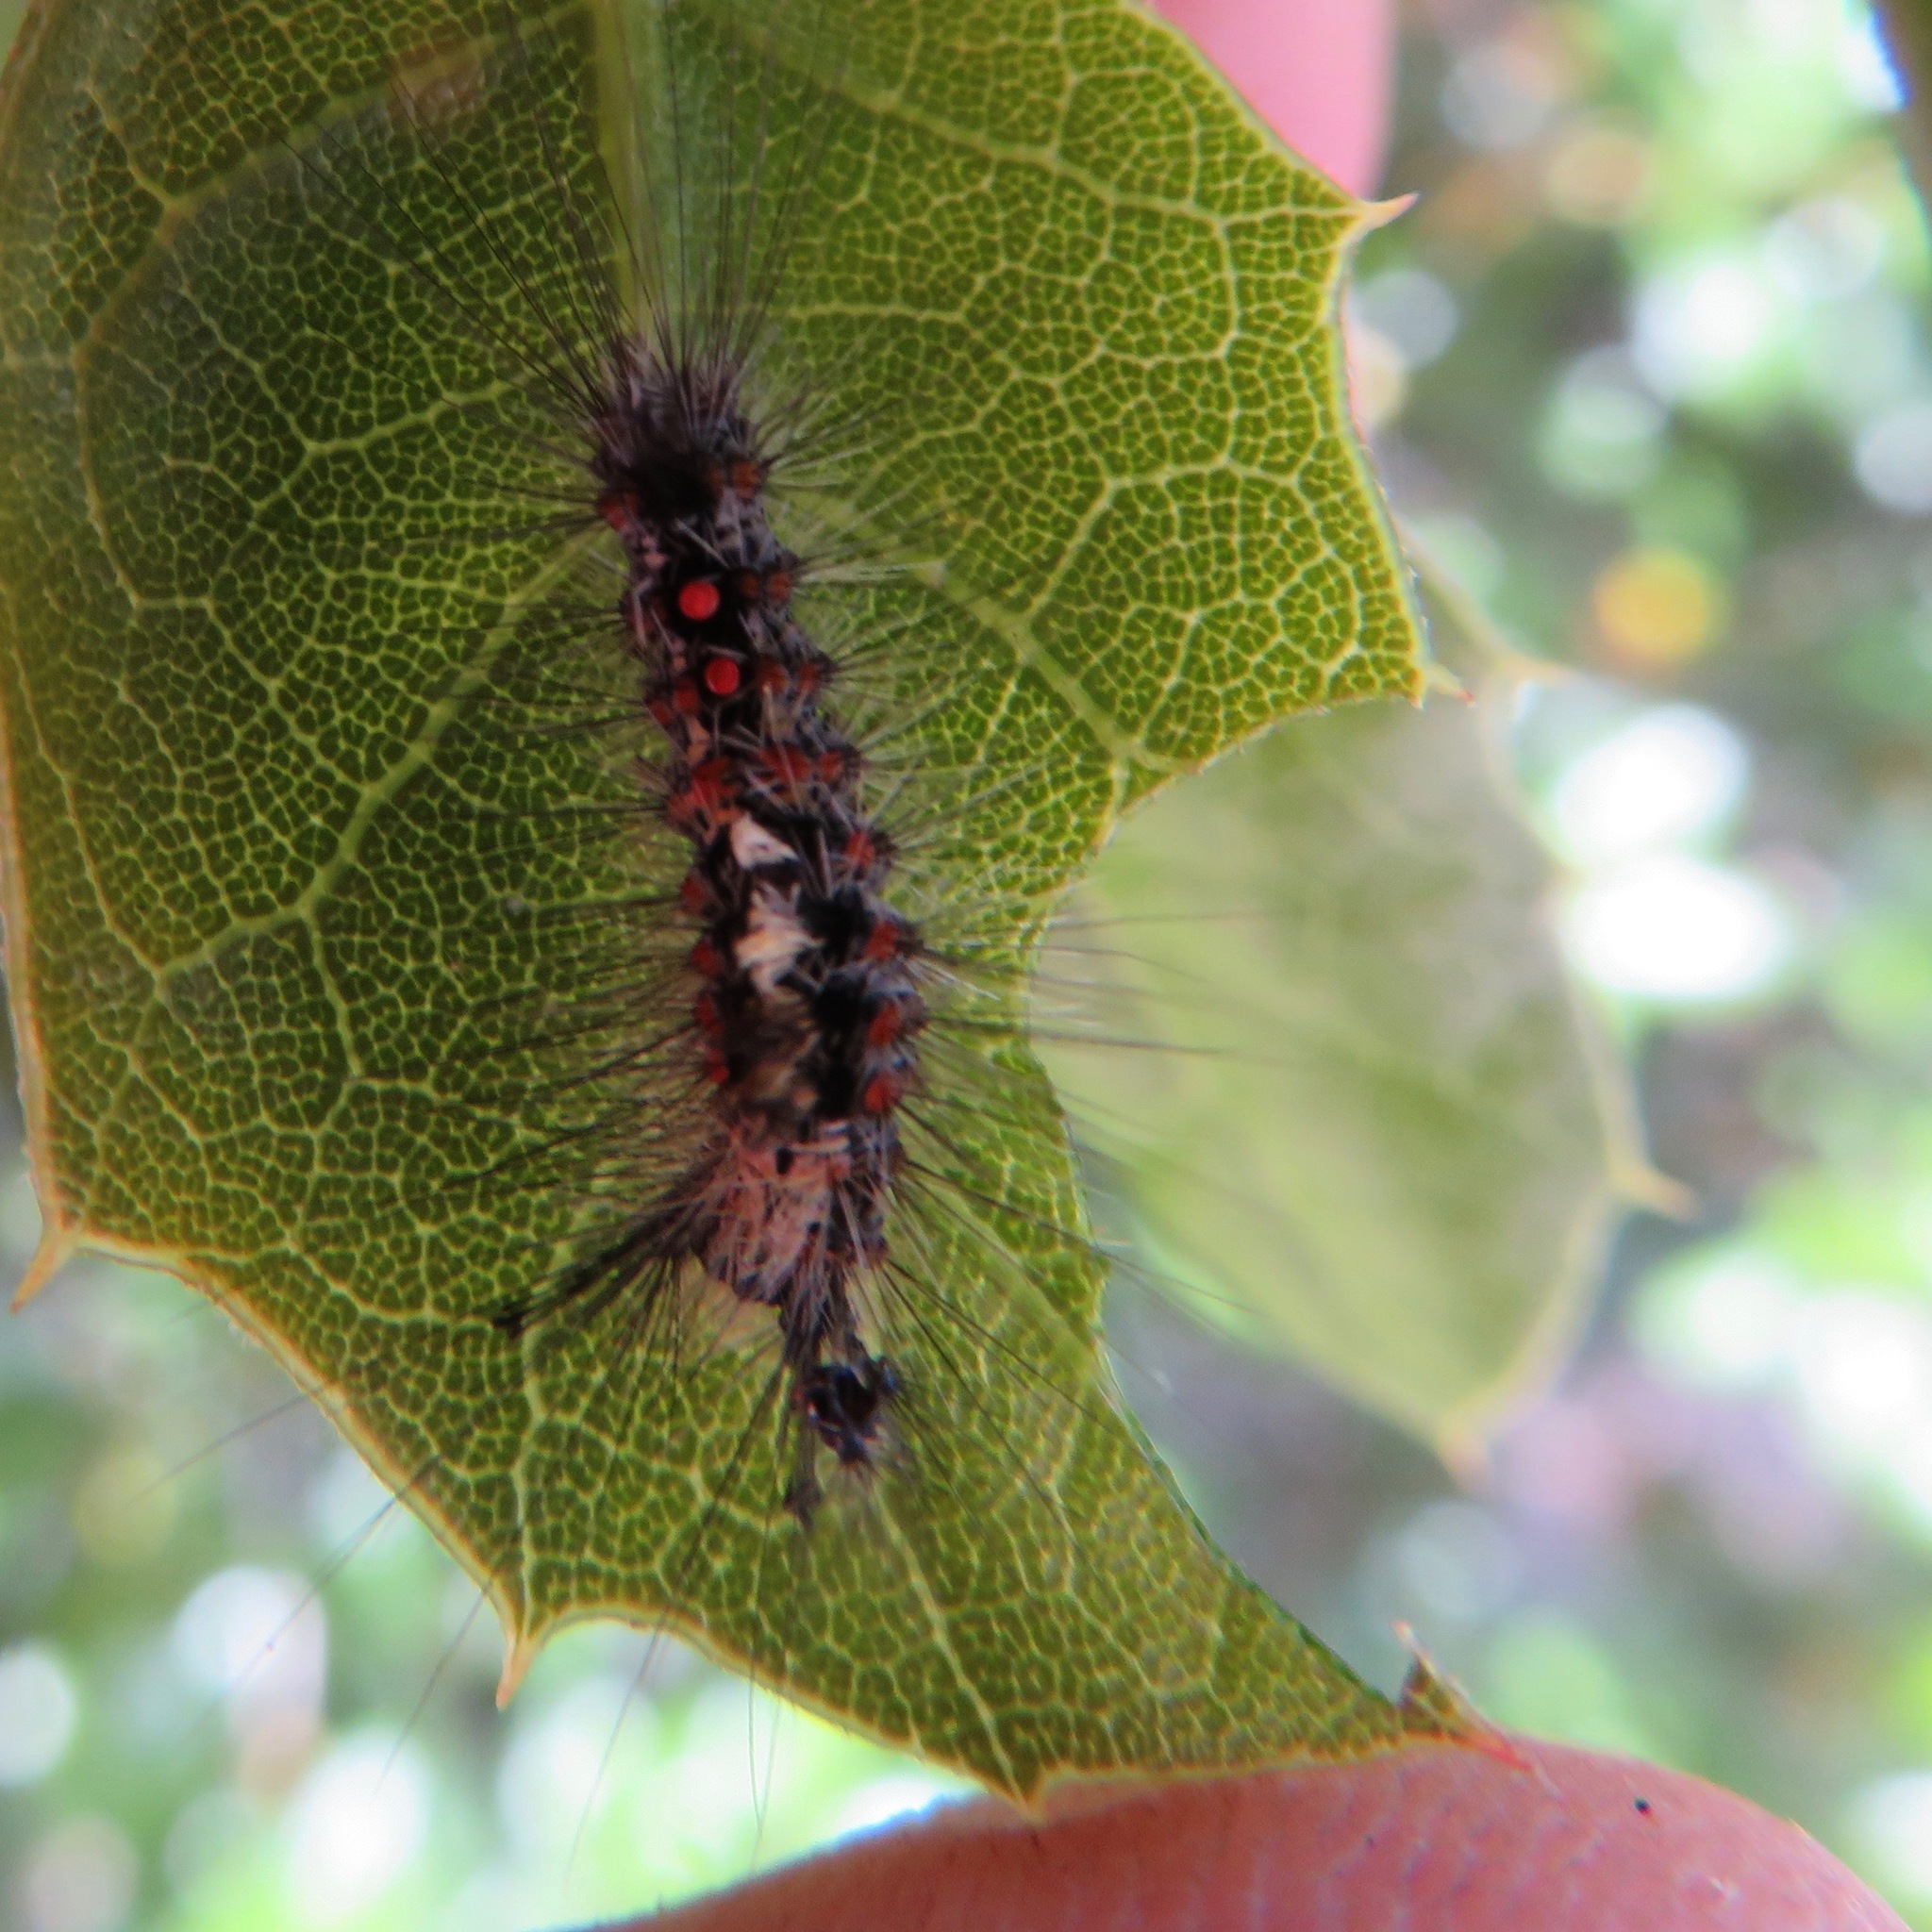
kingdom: Animalia
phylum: Arthropoda
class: Insecta
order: Lepidoptera
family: Erebidae
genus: Orgyia
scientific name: Orgyia
